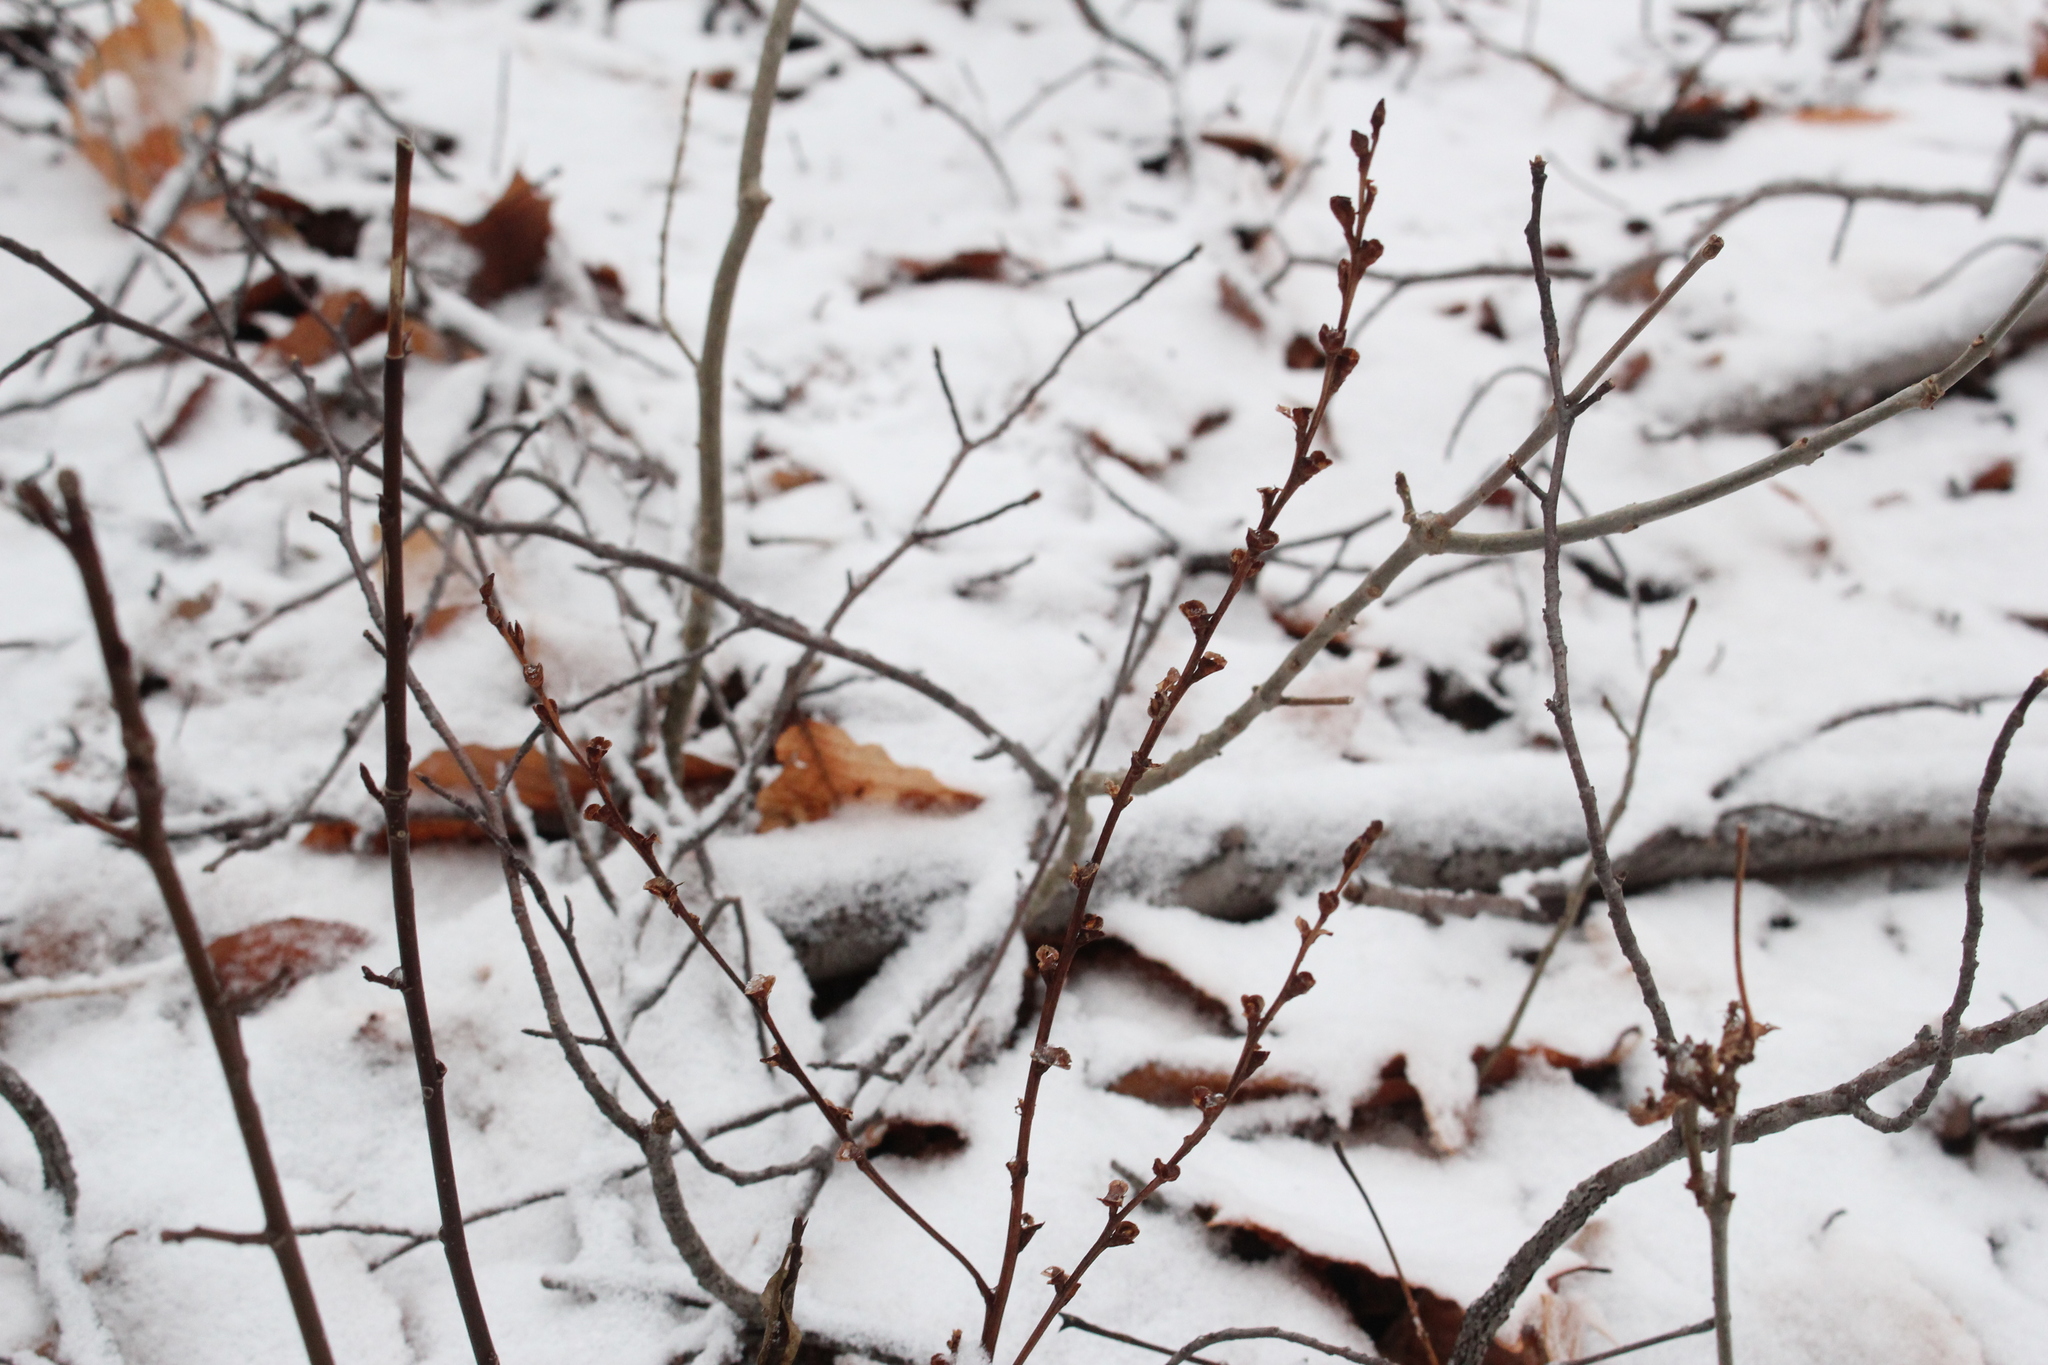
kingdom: Plantae
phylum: Tracheophyta
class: Magnoliopsida
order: Lamiales
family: Orobanchaceae
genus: Epifagus
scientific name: Epifagus virginiana
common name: Beechdrops
